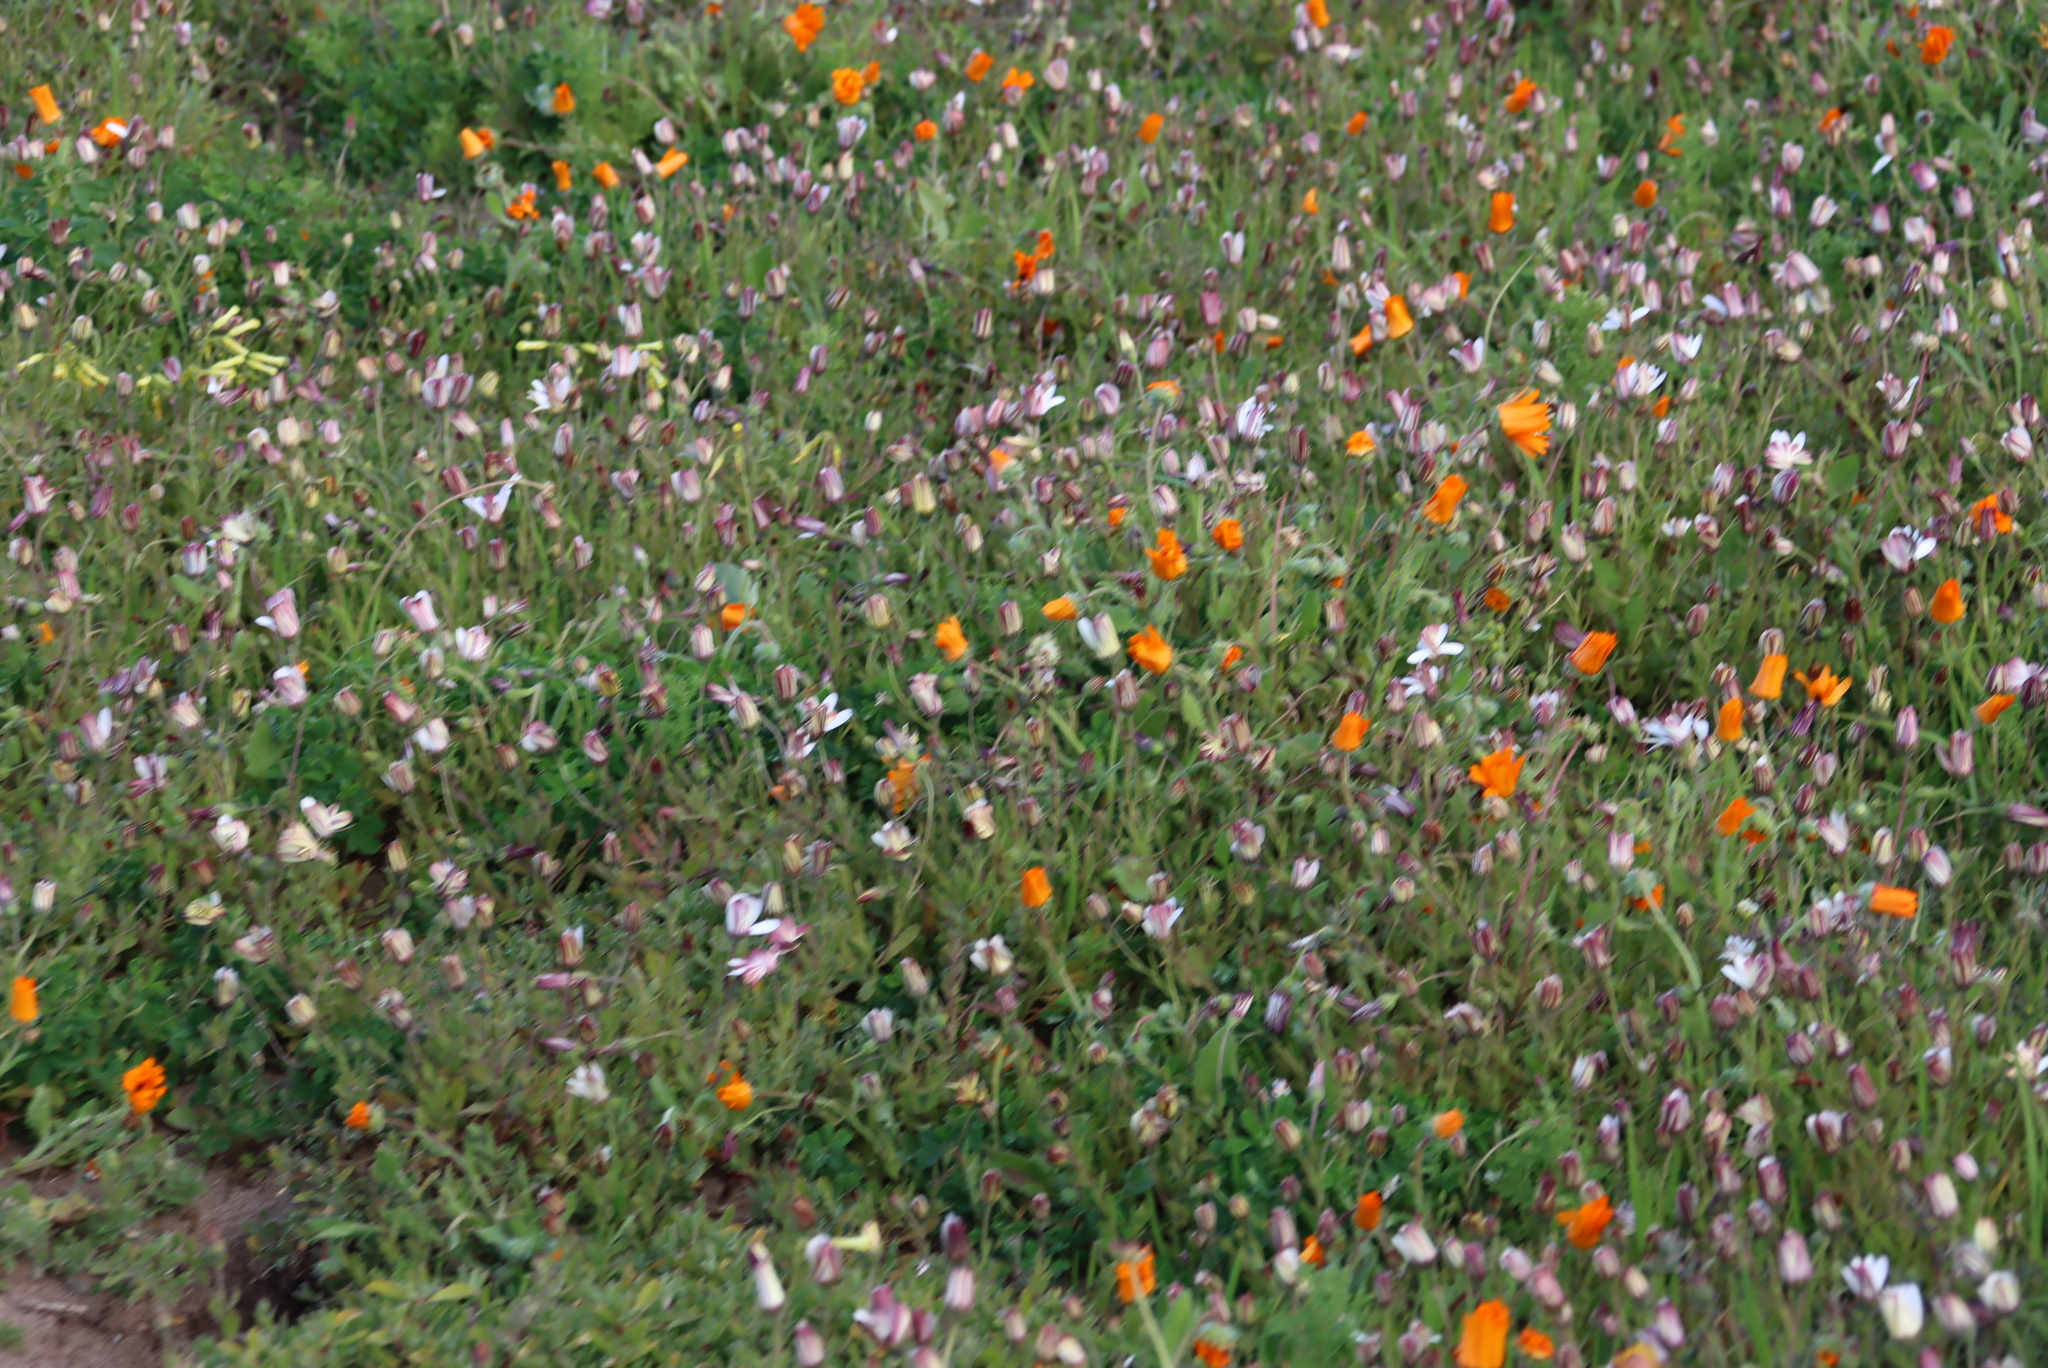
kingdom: Plantae
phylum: Tracheophyta
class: Magnoliopsida
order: Oxalidales
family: Oxalidaceae
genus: Oxalis
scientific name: Oxalis pes-caprae
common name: Bermuda-buttercup
